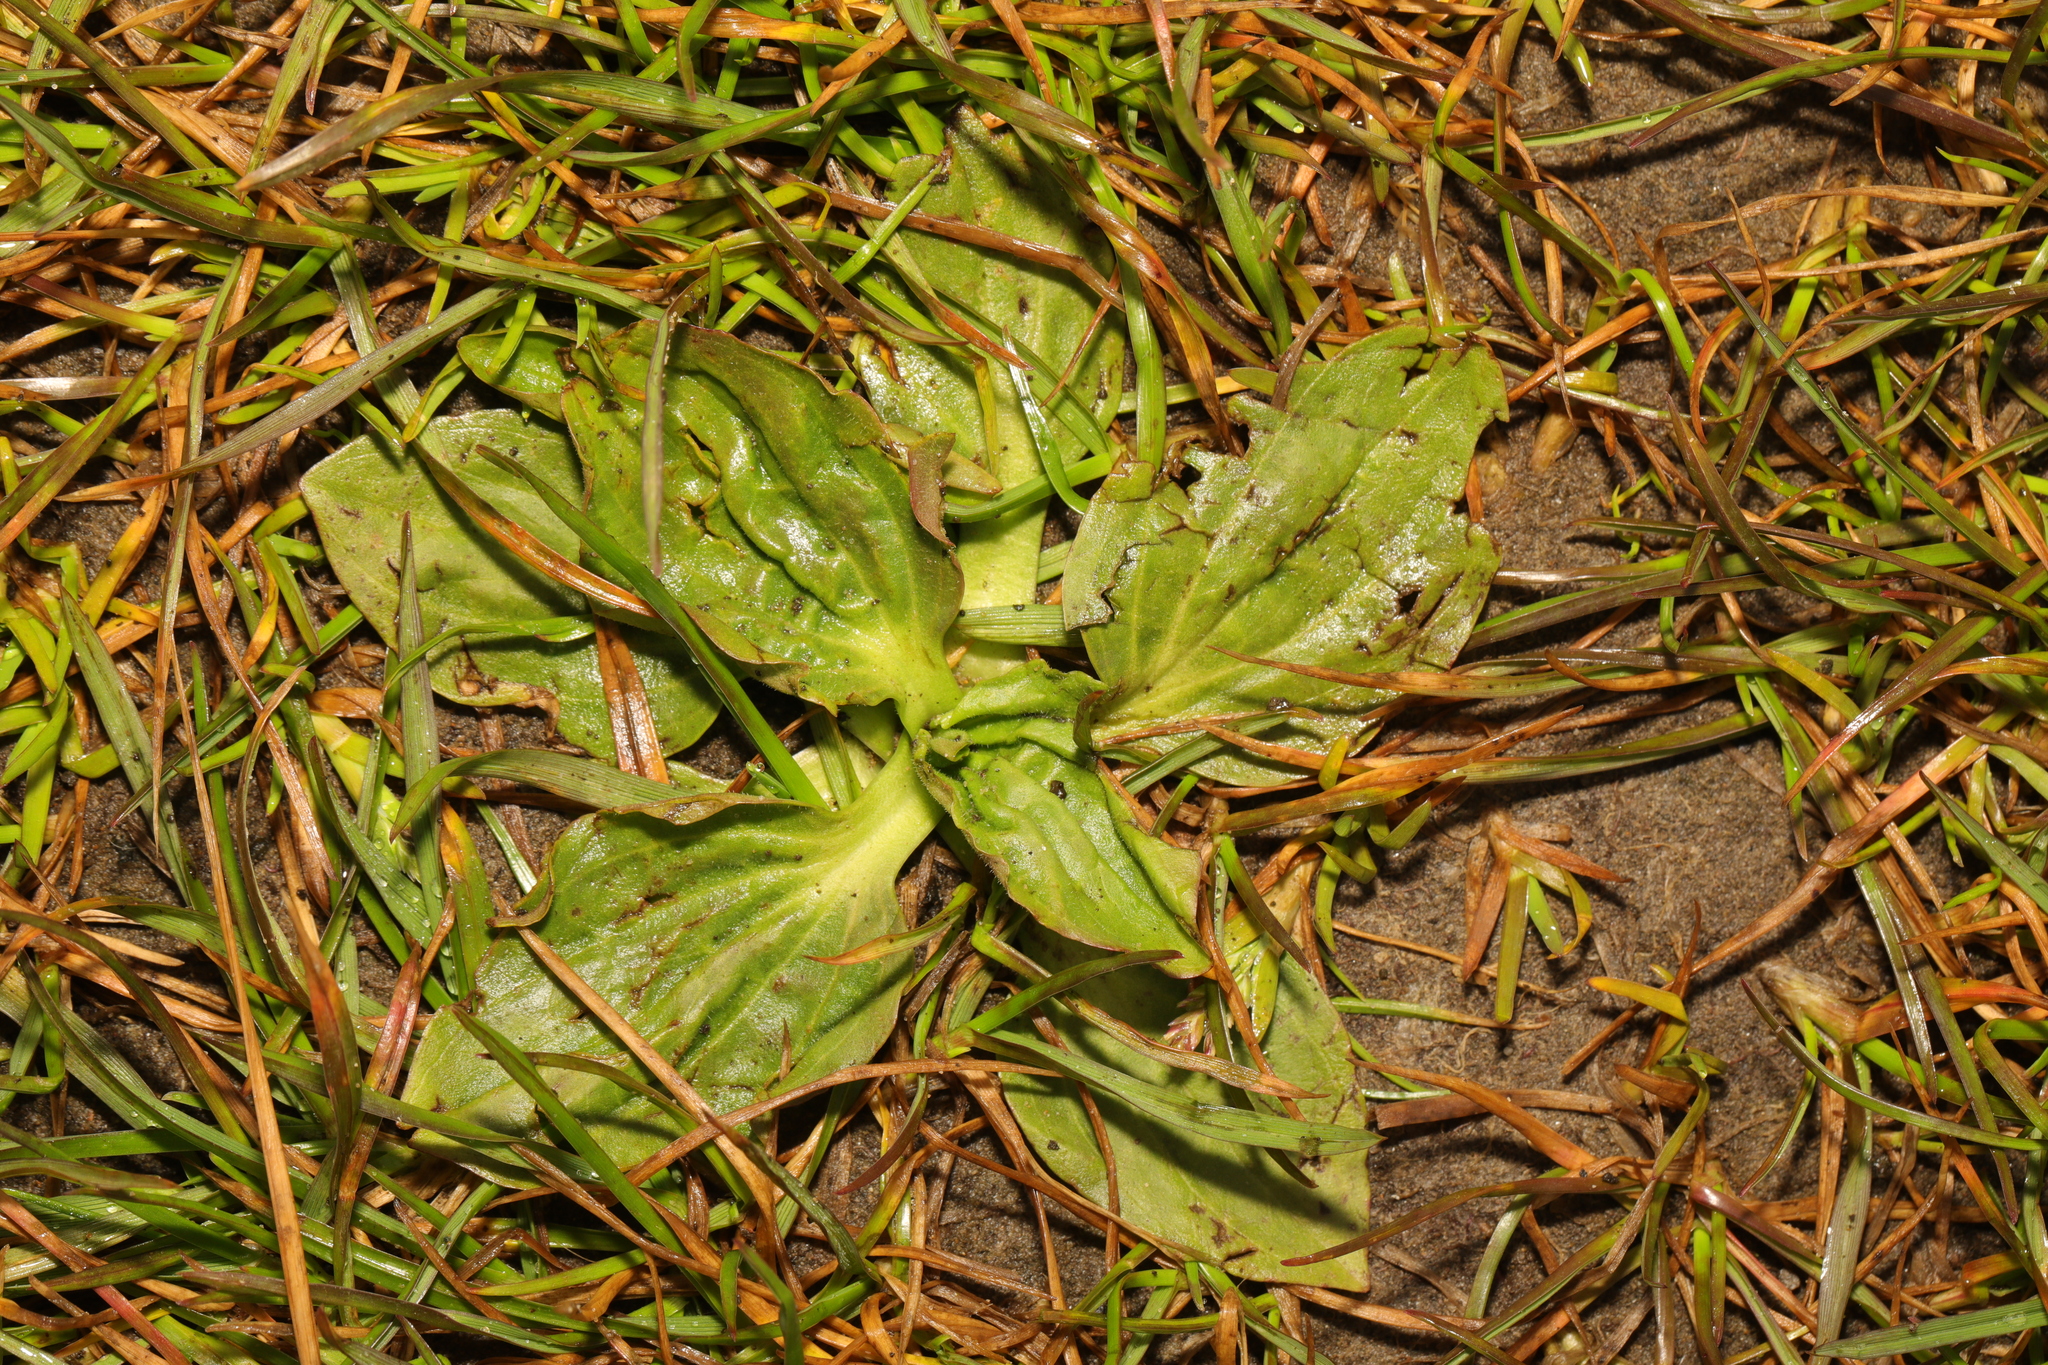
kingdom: Plantae
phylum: Tracheophyta
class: Magnoliopsida
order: Lamiales
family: Plantaginaceae
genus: Plantago
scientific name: Plantago major
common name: Common plantain
